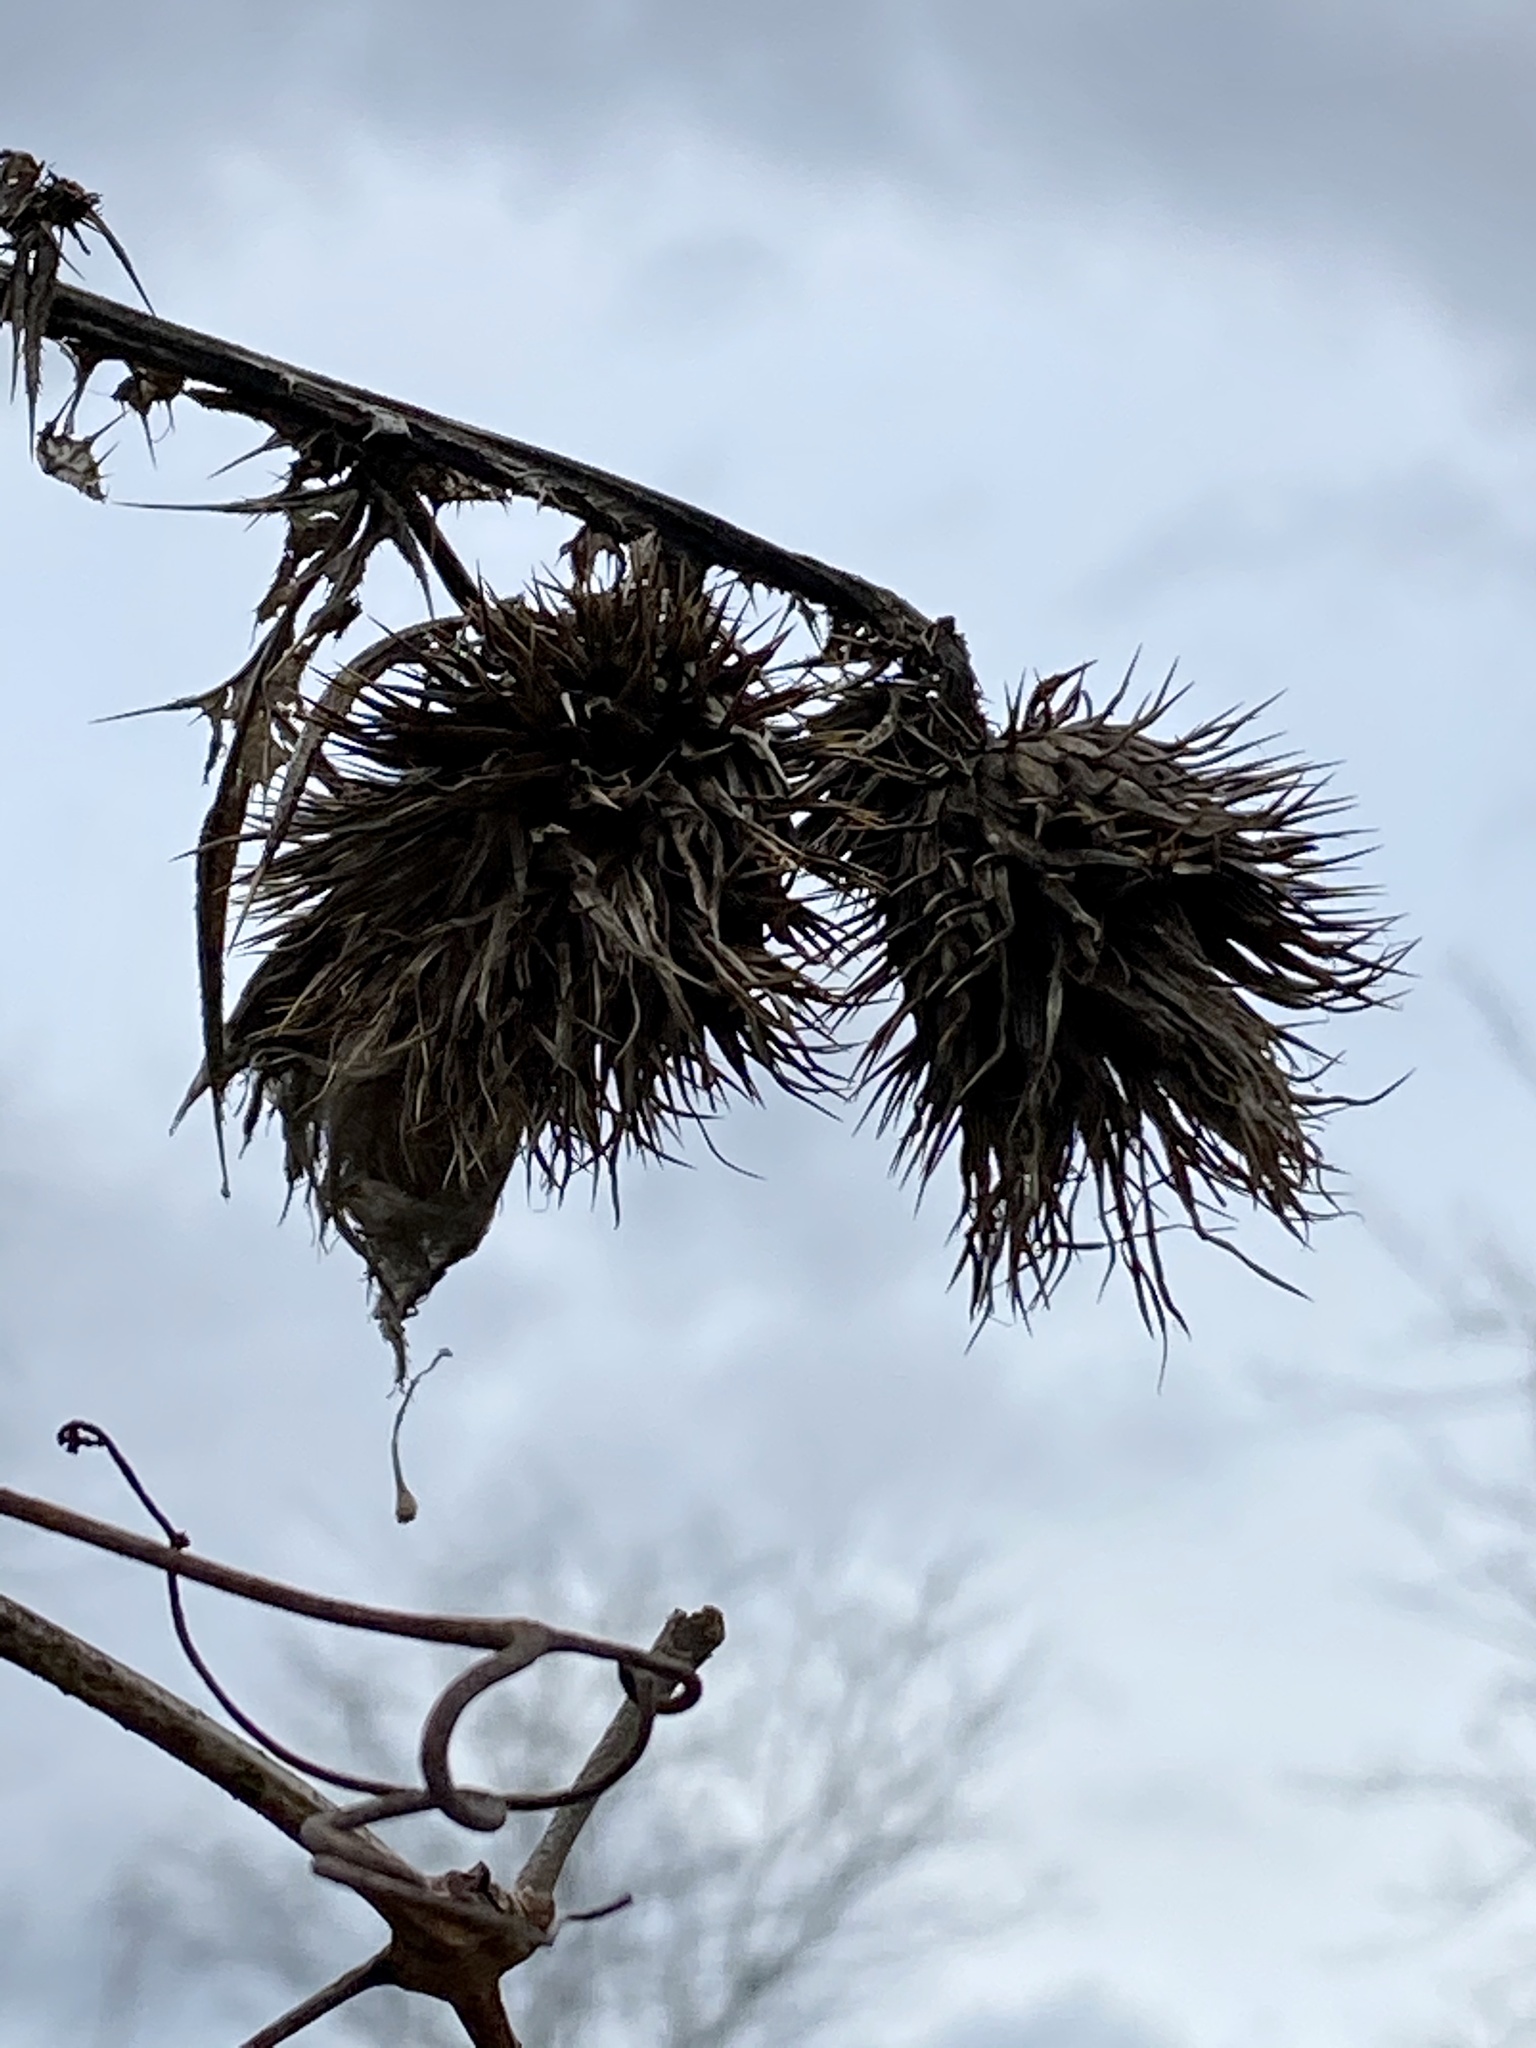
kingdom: Plantae
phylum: Tracheophyta
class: Magnoliopsida
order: Asterales
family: Asteraceae
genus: Cirsium
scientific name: Cirsium vulgare
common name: Bull thistle
